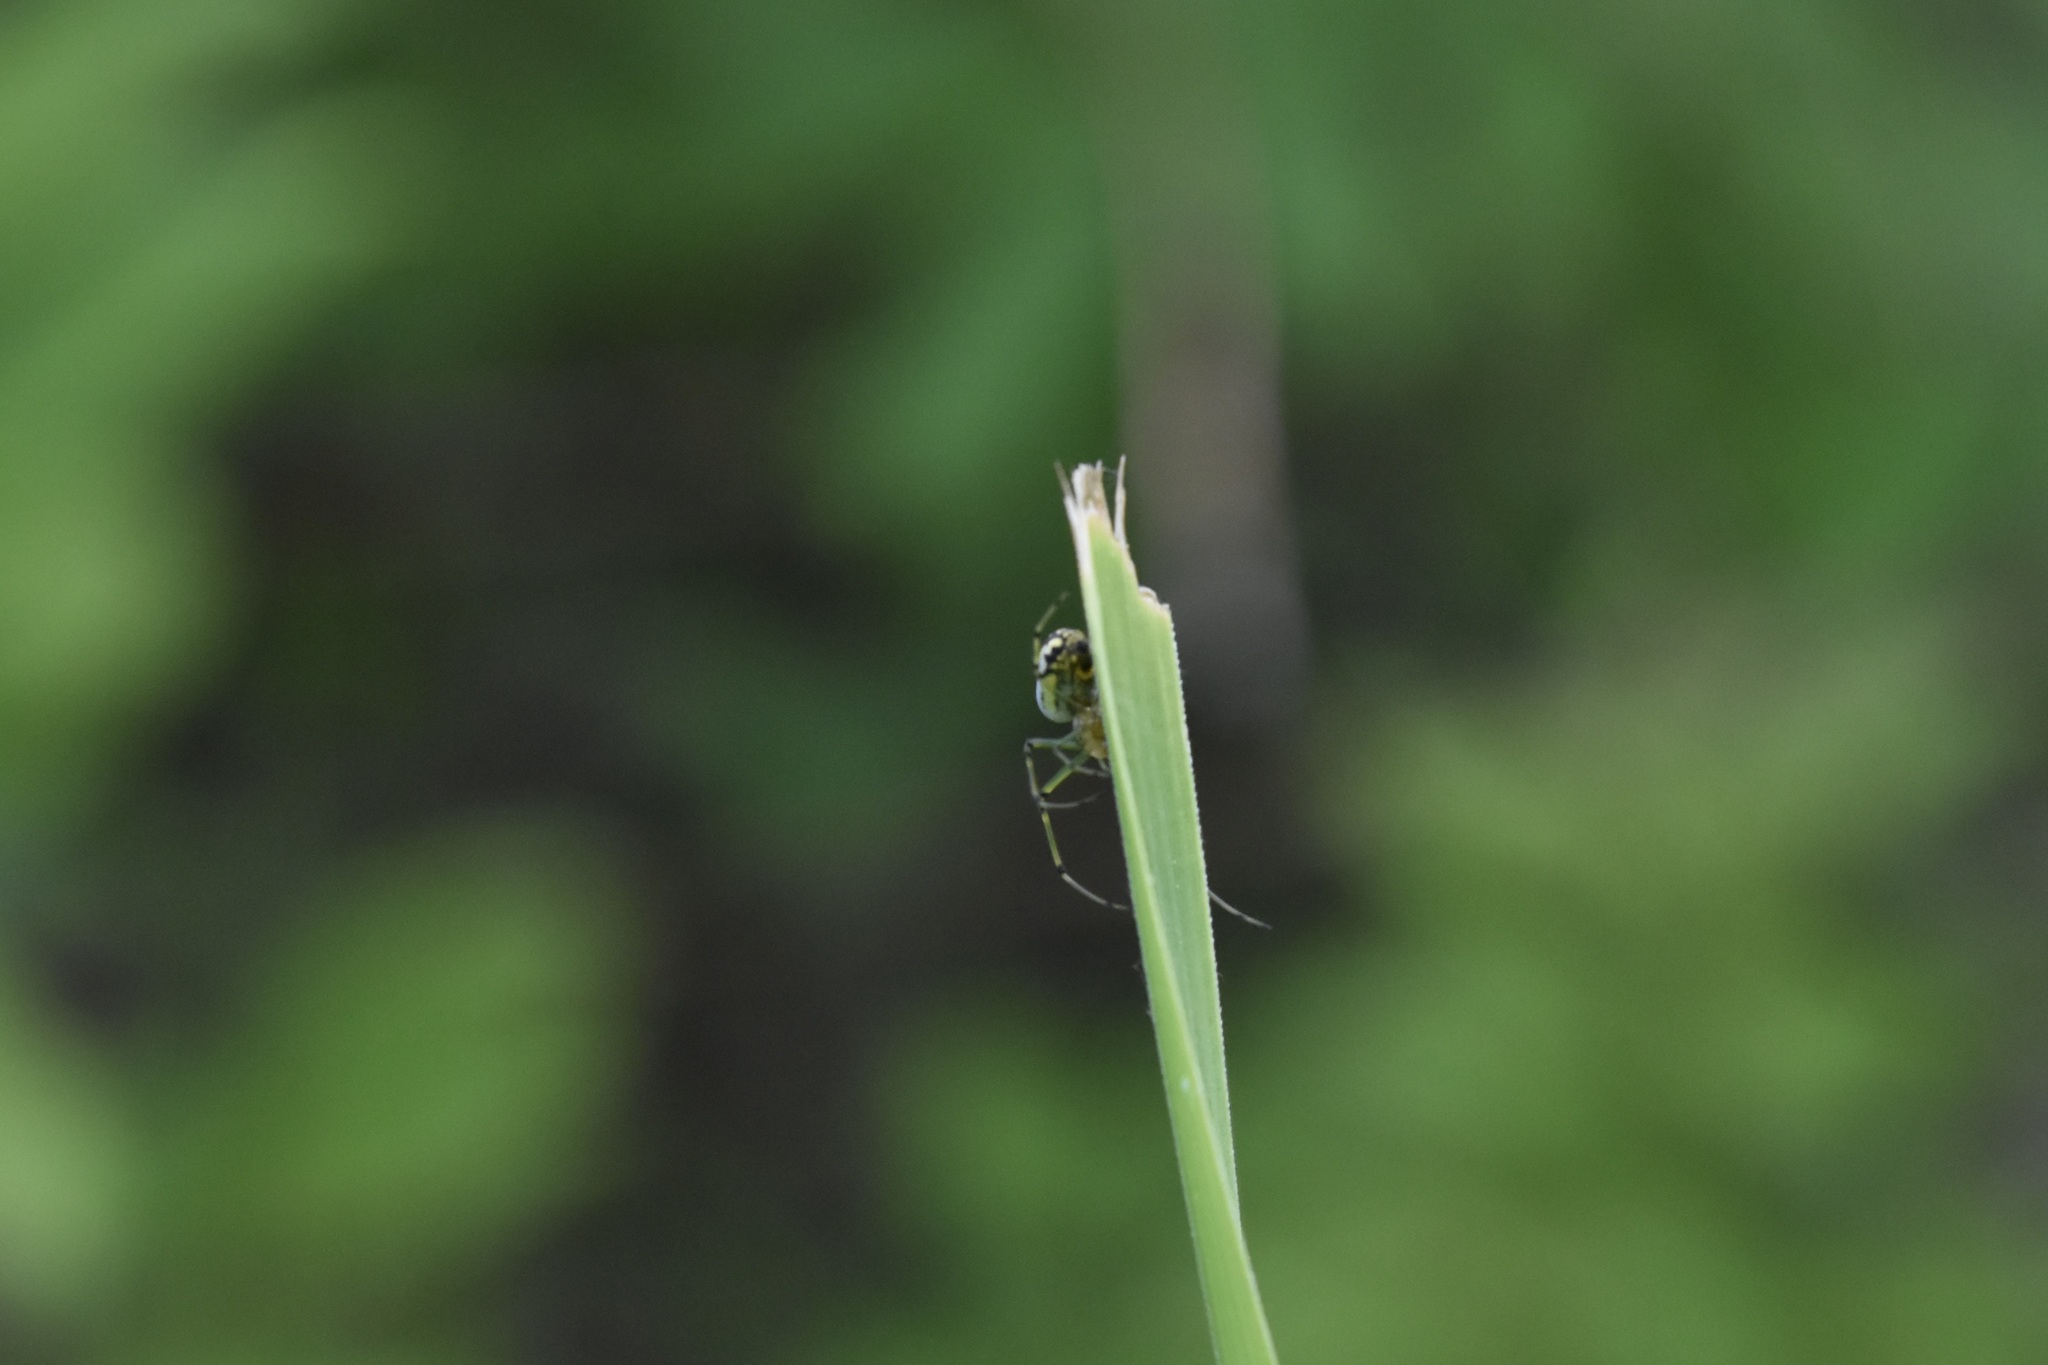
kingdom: Animalia
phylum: Arthropoda
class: Arachnida
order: Araneae
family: Tetragnathidae
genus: Leucauge
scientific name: Leucauge venusta
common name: Longjawed orb weavers
